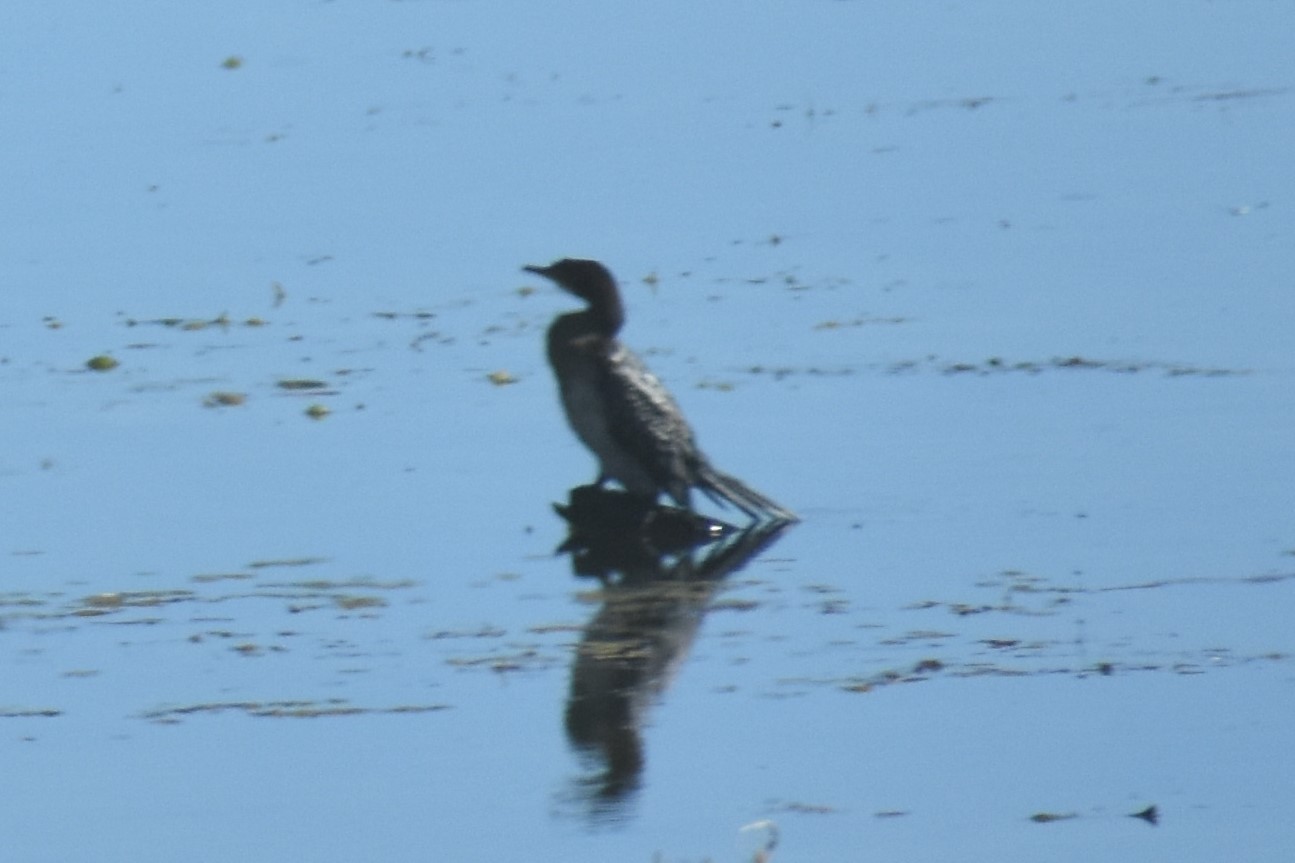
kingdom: Animalia
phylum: Chordata
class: Aves
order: Suliformes
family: Phalacrocoracidae
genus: Microcarbo
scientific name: Microcarbo africanus
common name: Long-tailed cormorant
